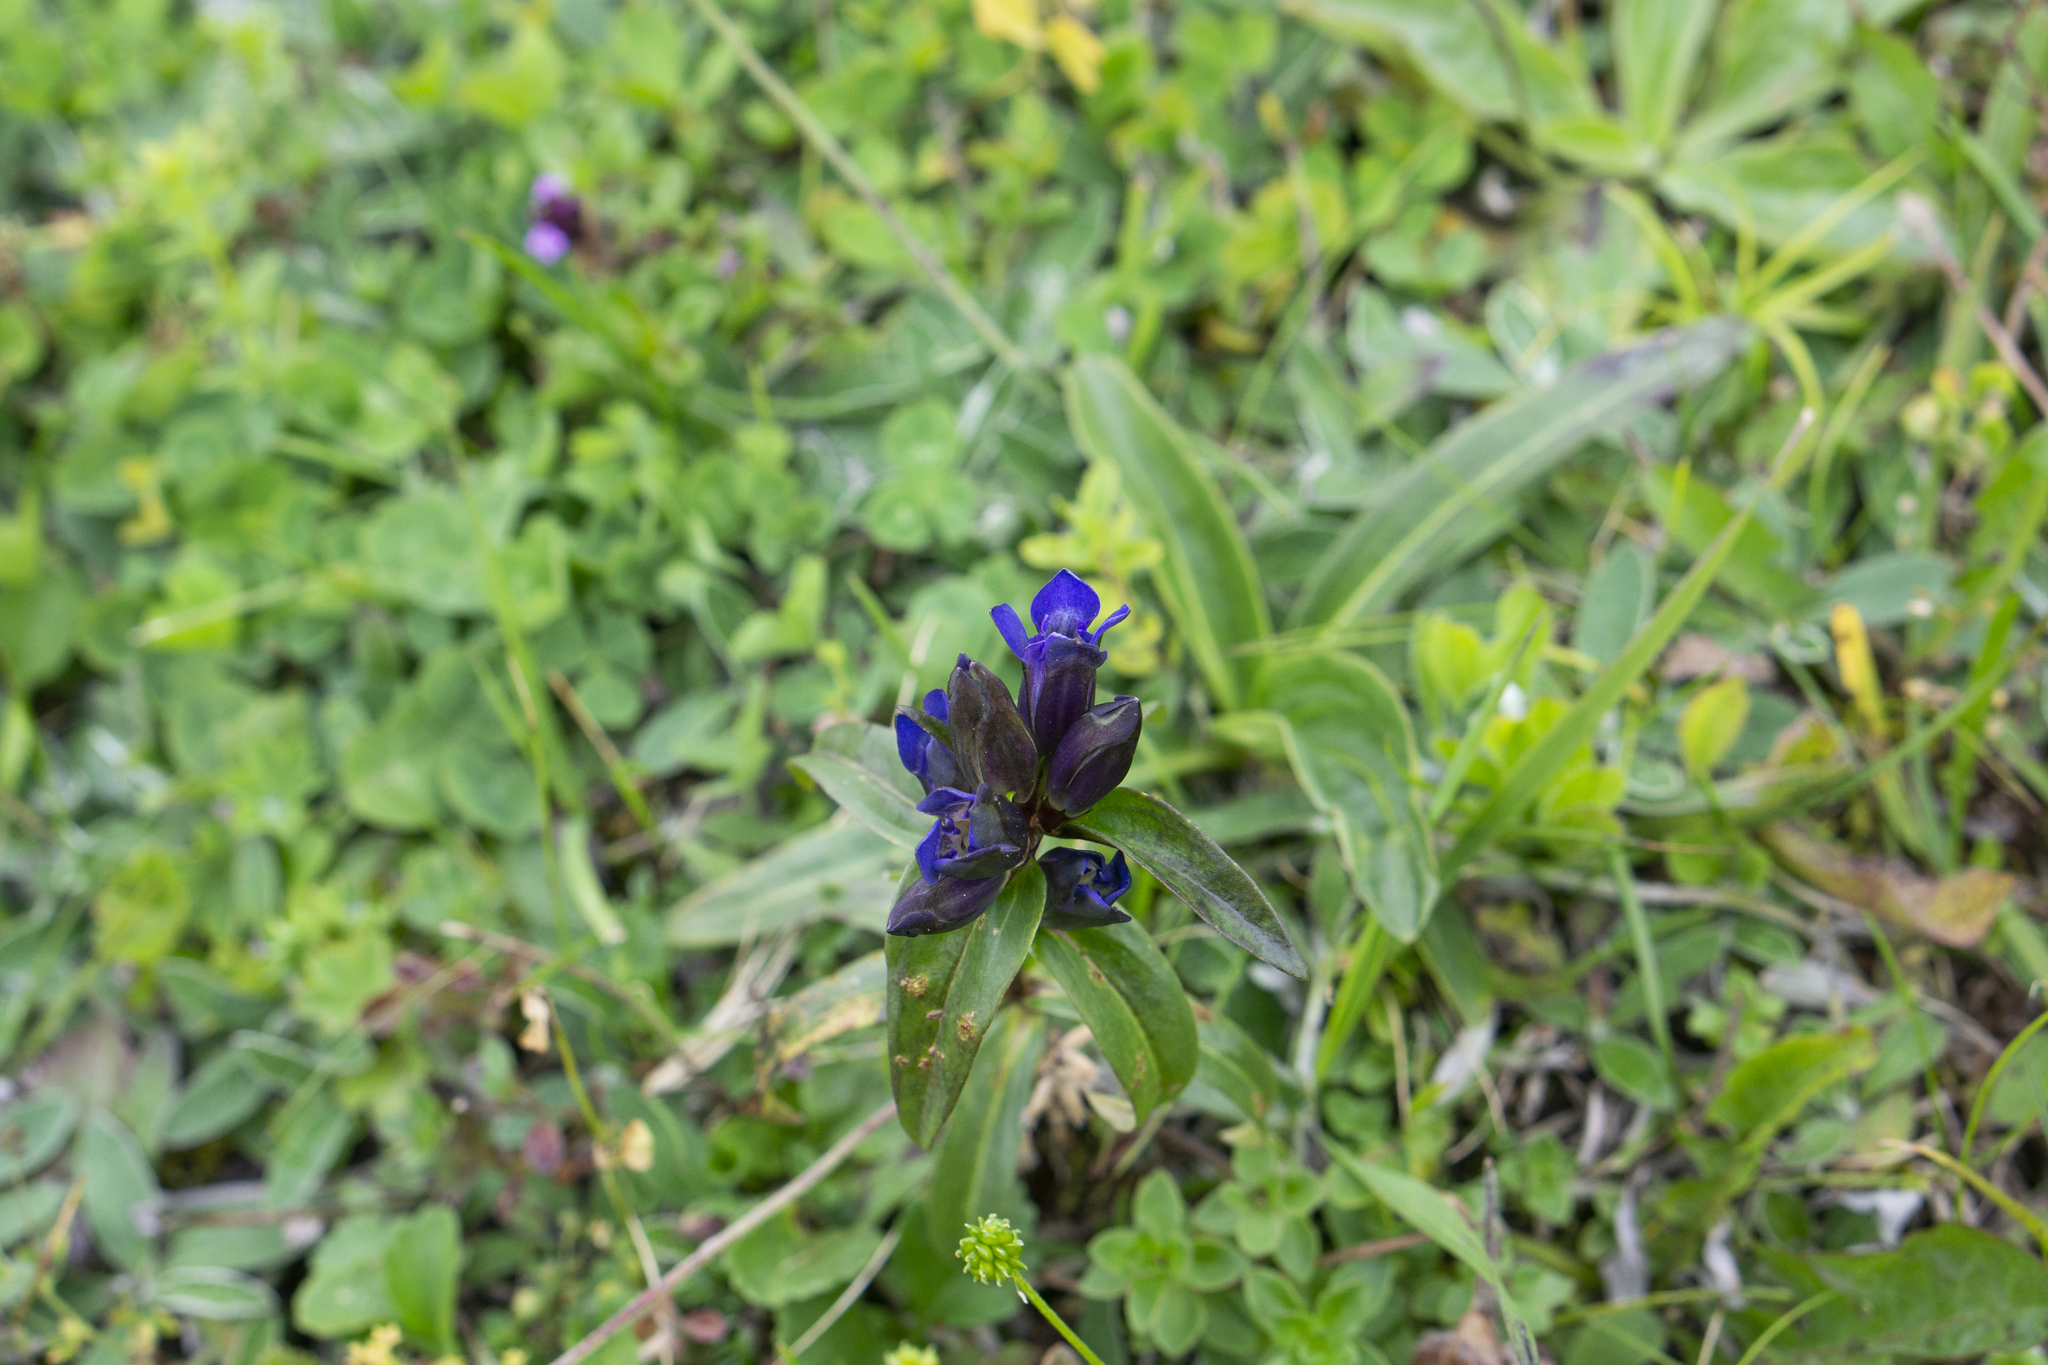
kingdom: Plantae
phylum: Tracheophyta
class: Magnoliopsida
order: Gentianales
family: Gentianaceae
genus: Gentiana
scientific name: Gentiana cruciata
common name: Cross gentian
